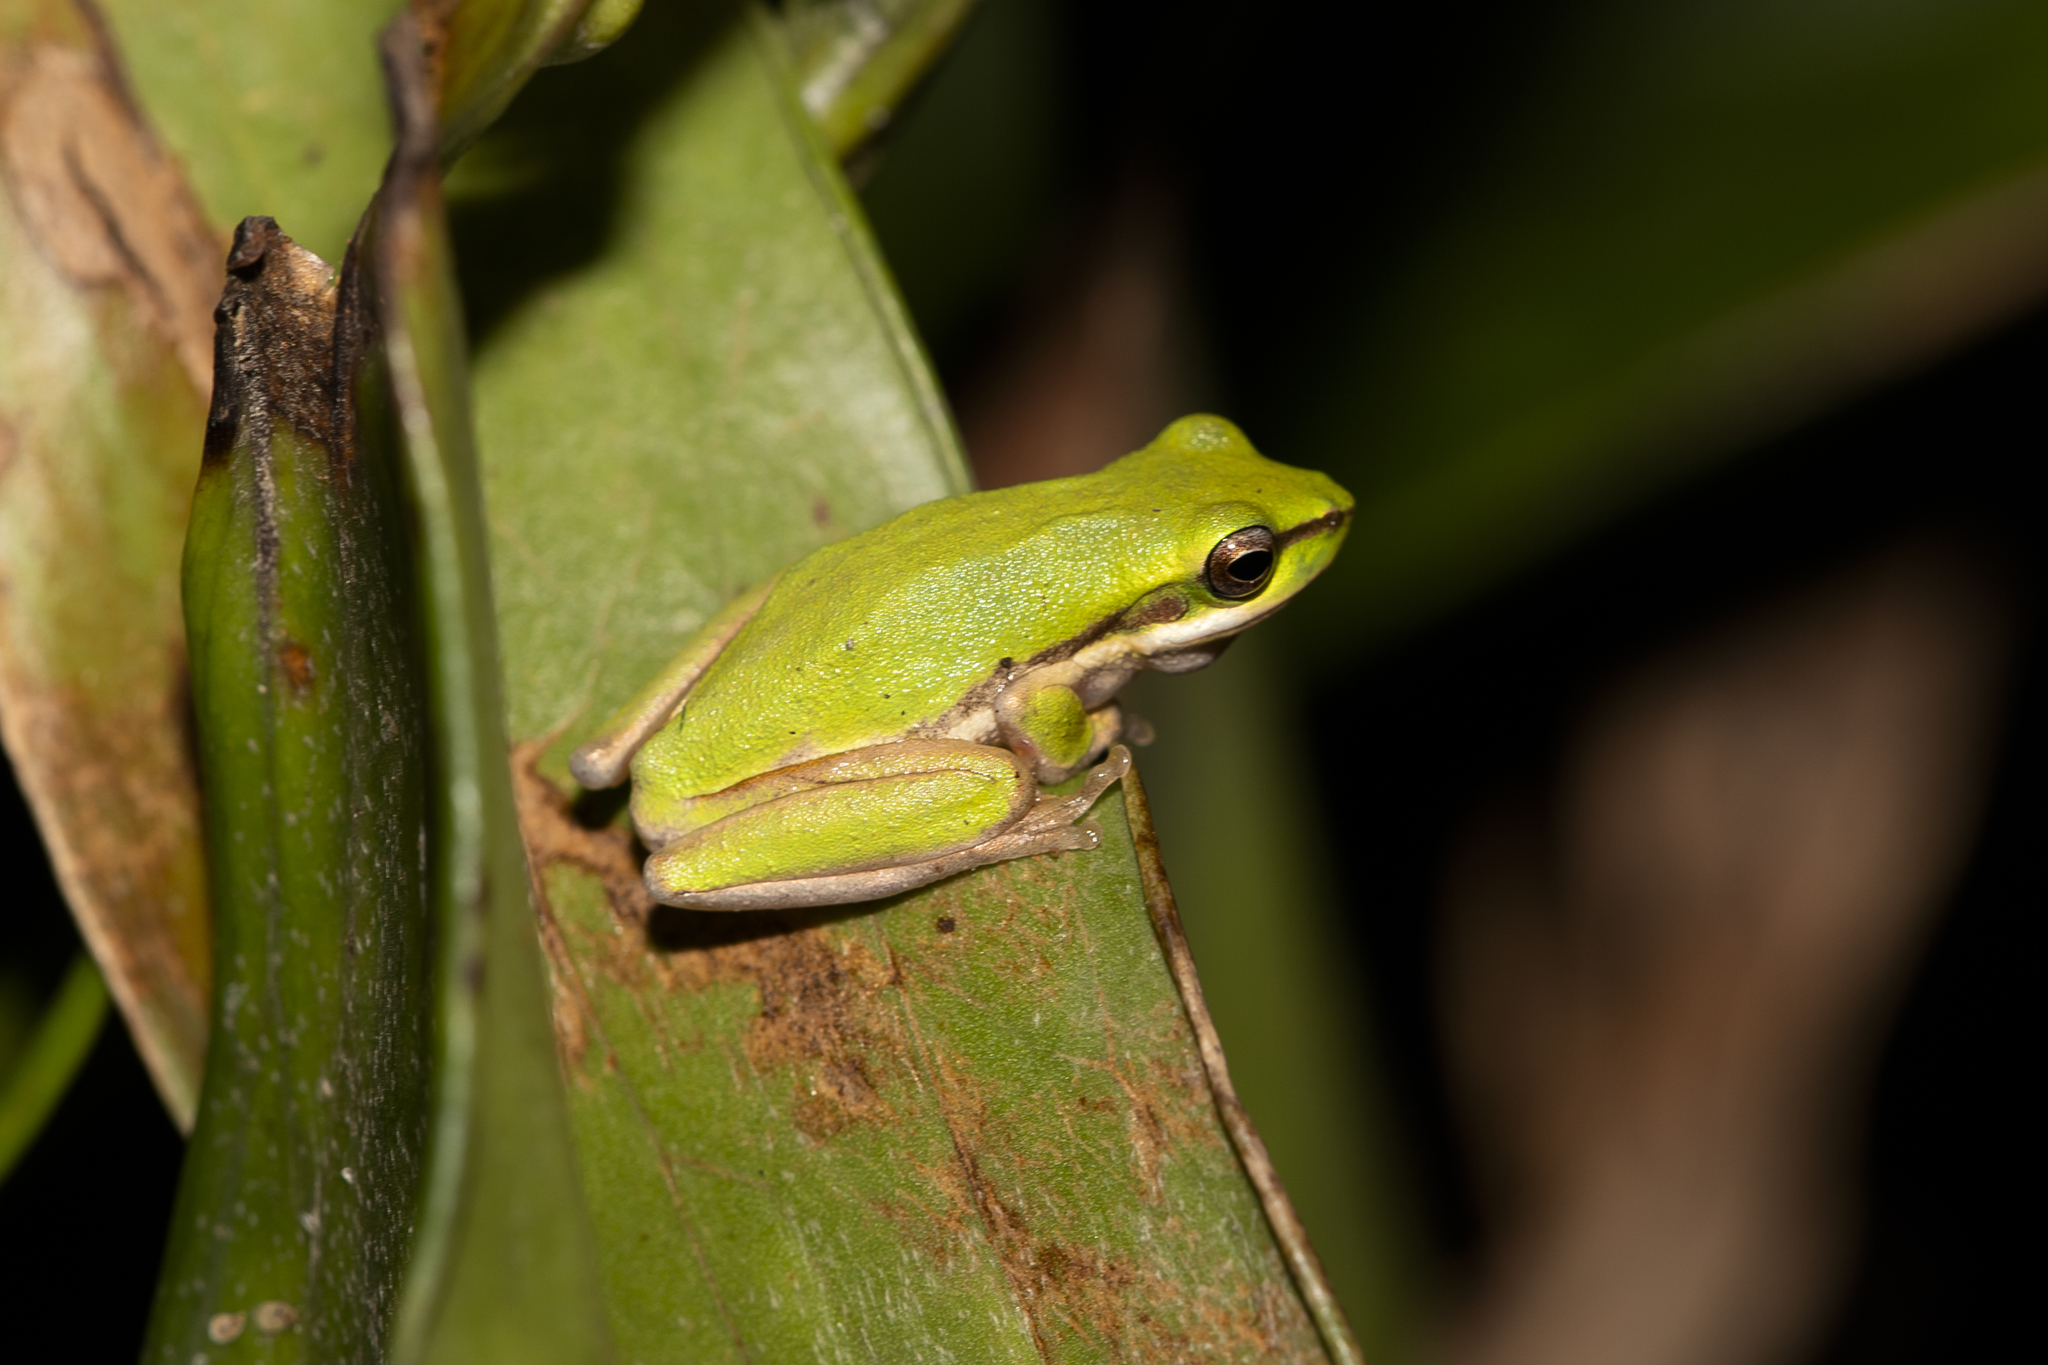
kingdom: Animalia
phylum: Chordata
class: Amphibia
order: Anura
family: Pelodryadidae
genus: Litoria
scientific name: Litoria bicolor
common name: Green reed frog
